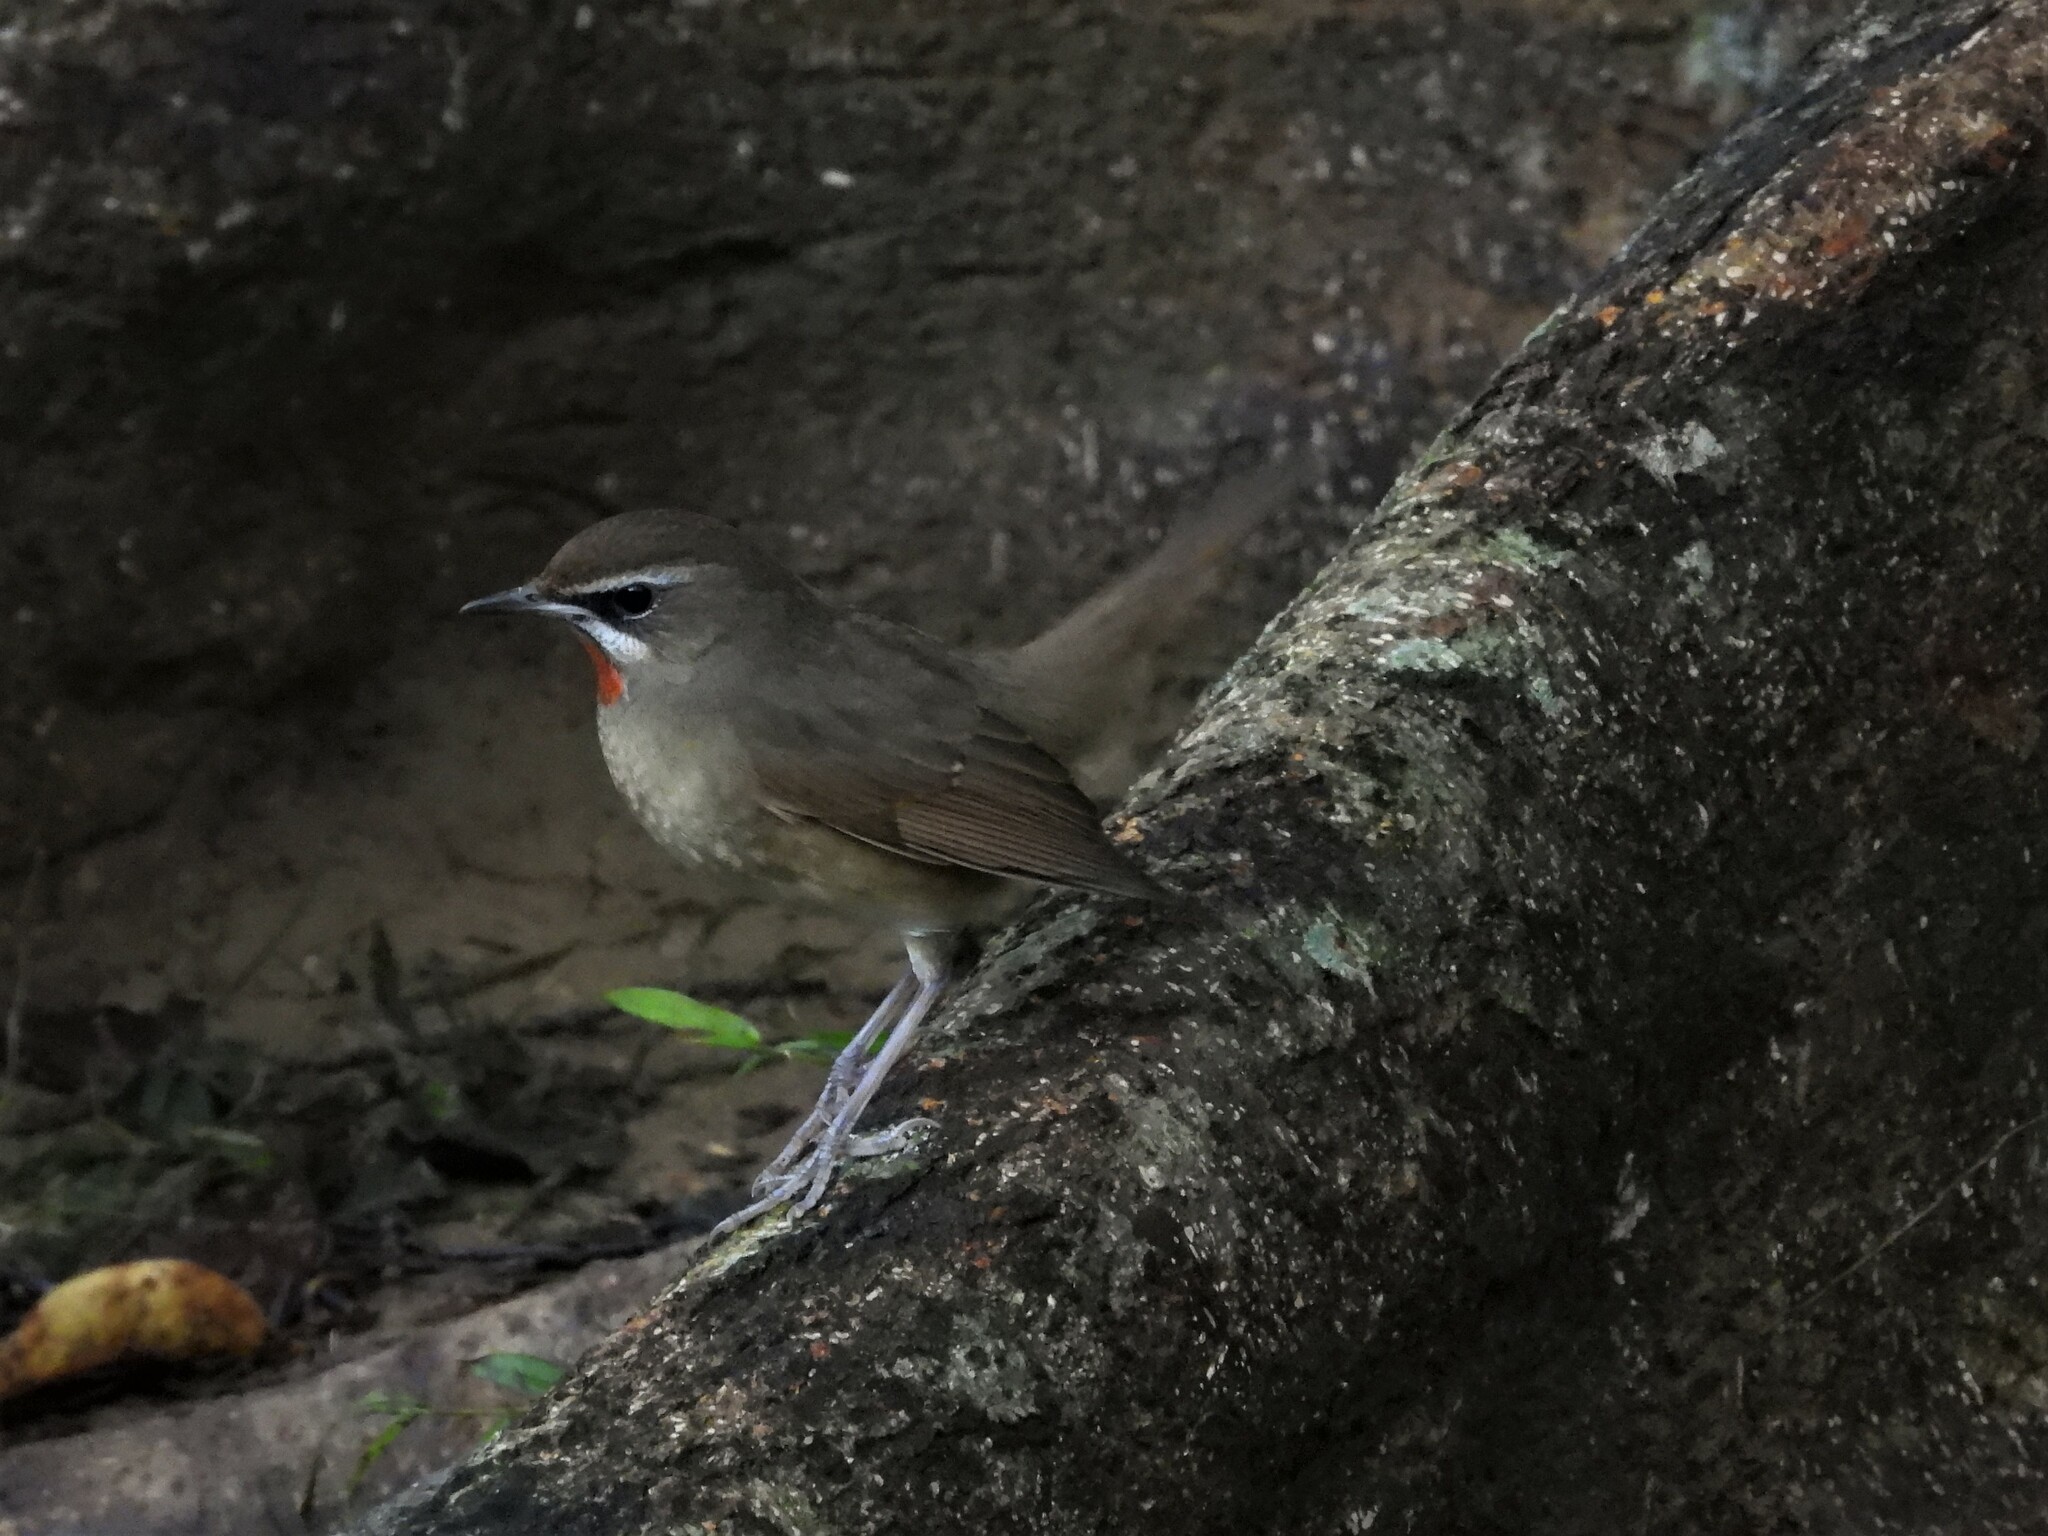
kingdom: Animalia
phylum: Chordata
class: Aves
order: Passeriformes
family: Muscicapidae
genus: Luscinia
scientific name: Luscinia calliope
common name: Siberian rubythroat
